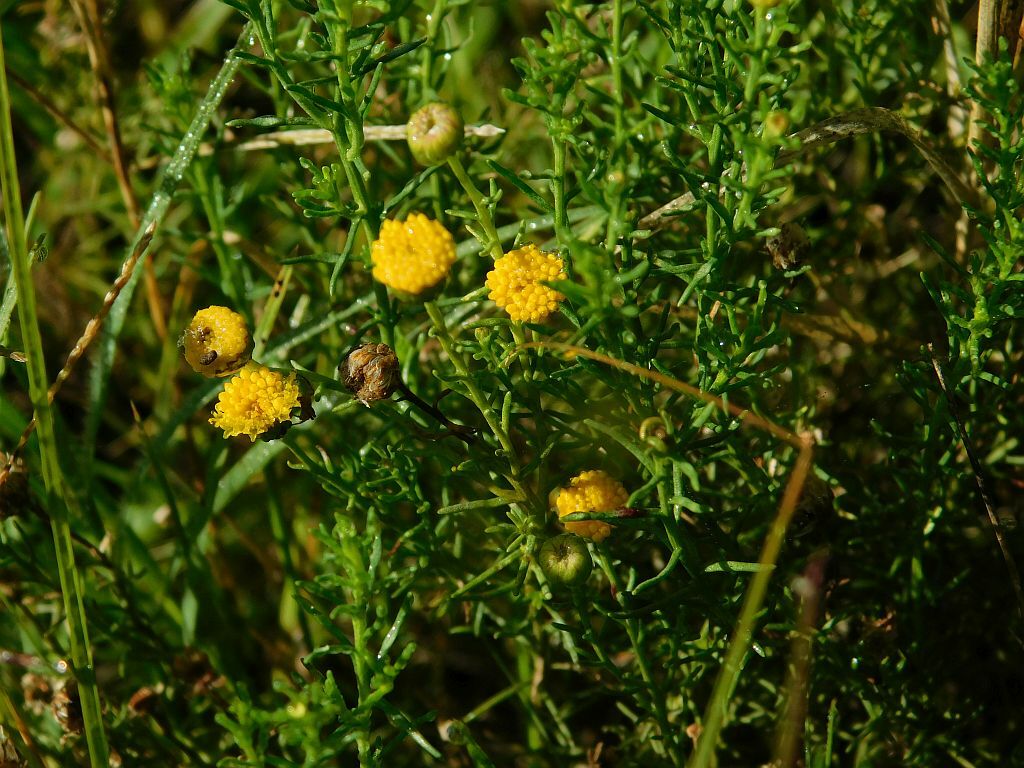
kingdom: Plantae
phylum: Tracheophyta
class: Magnoliopsida
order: Asterales
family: Asteraceae
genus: Chrysocoma
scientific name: Chrysocoma ciliata
